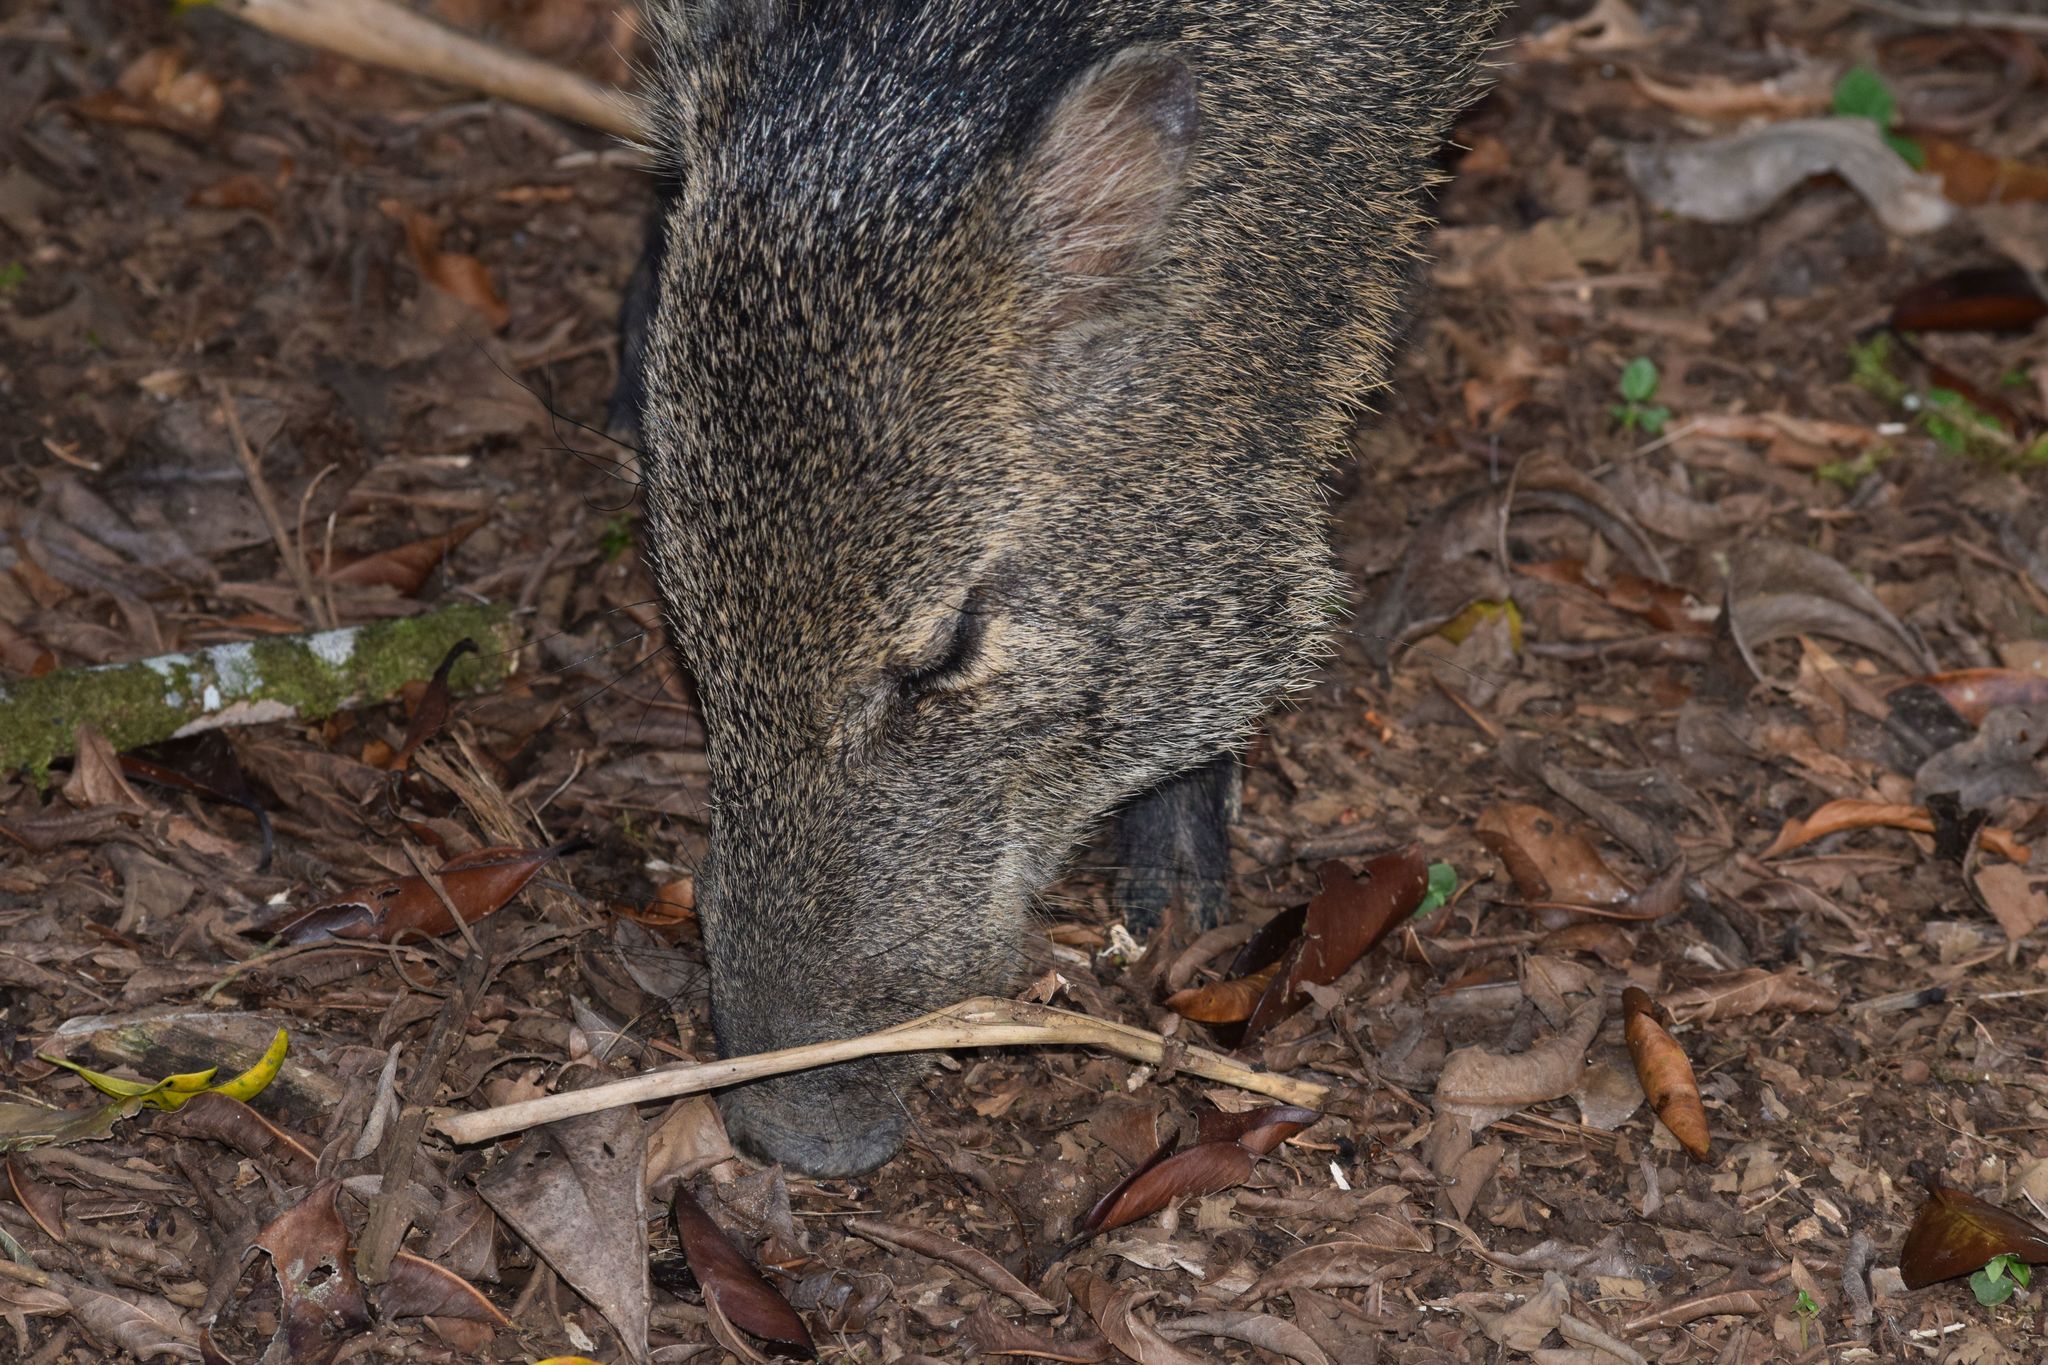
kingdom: Animalia
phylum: Chordata
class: Mammalia
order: Artiodactyla
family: Tayassuidae
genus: Pecari
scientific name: Pecari tajacu
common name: Collared peccary
